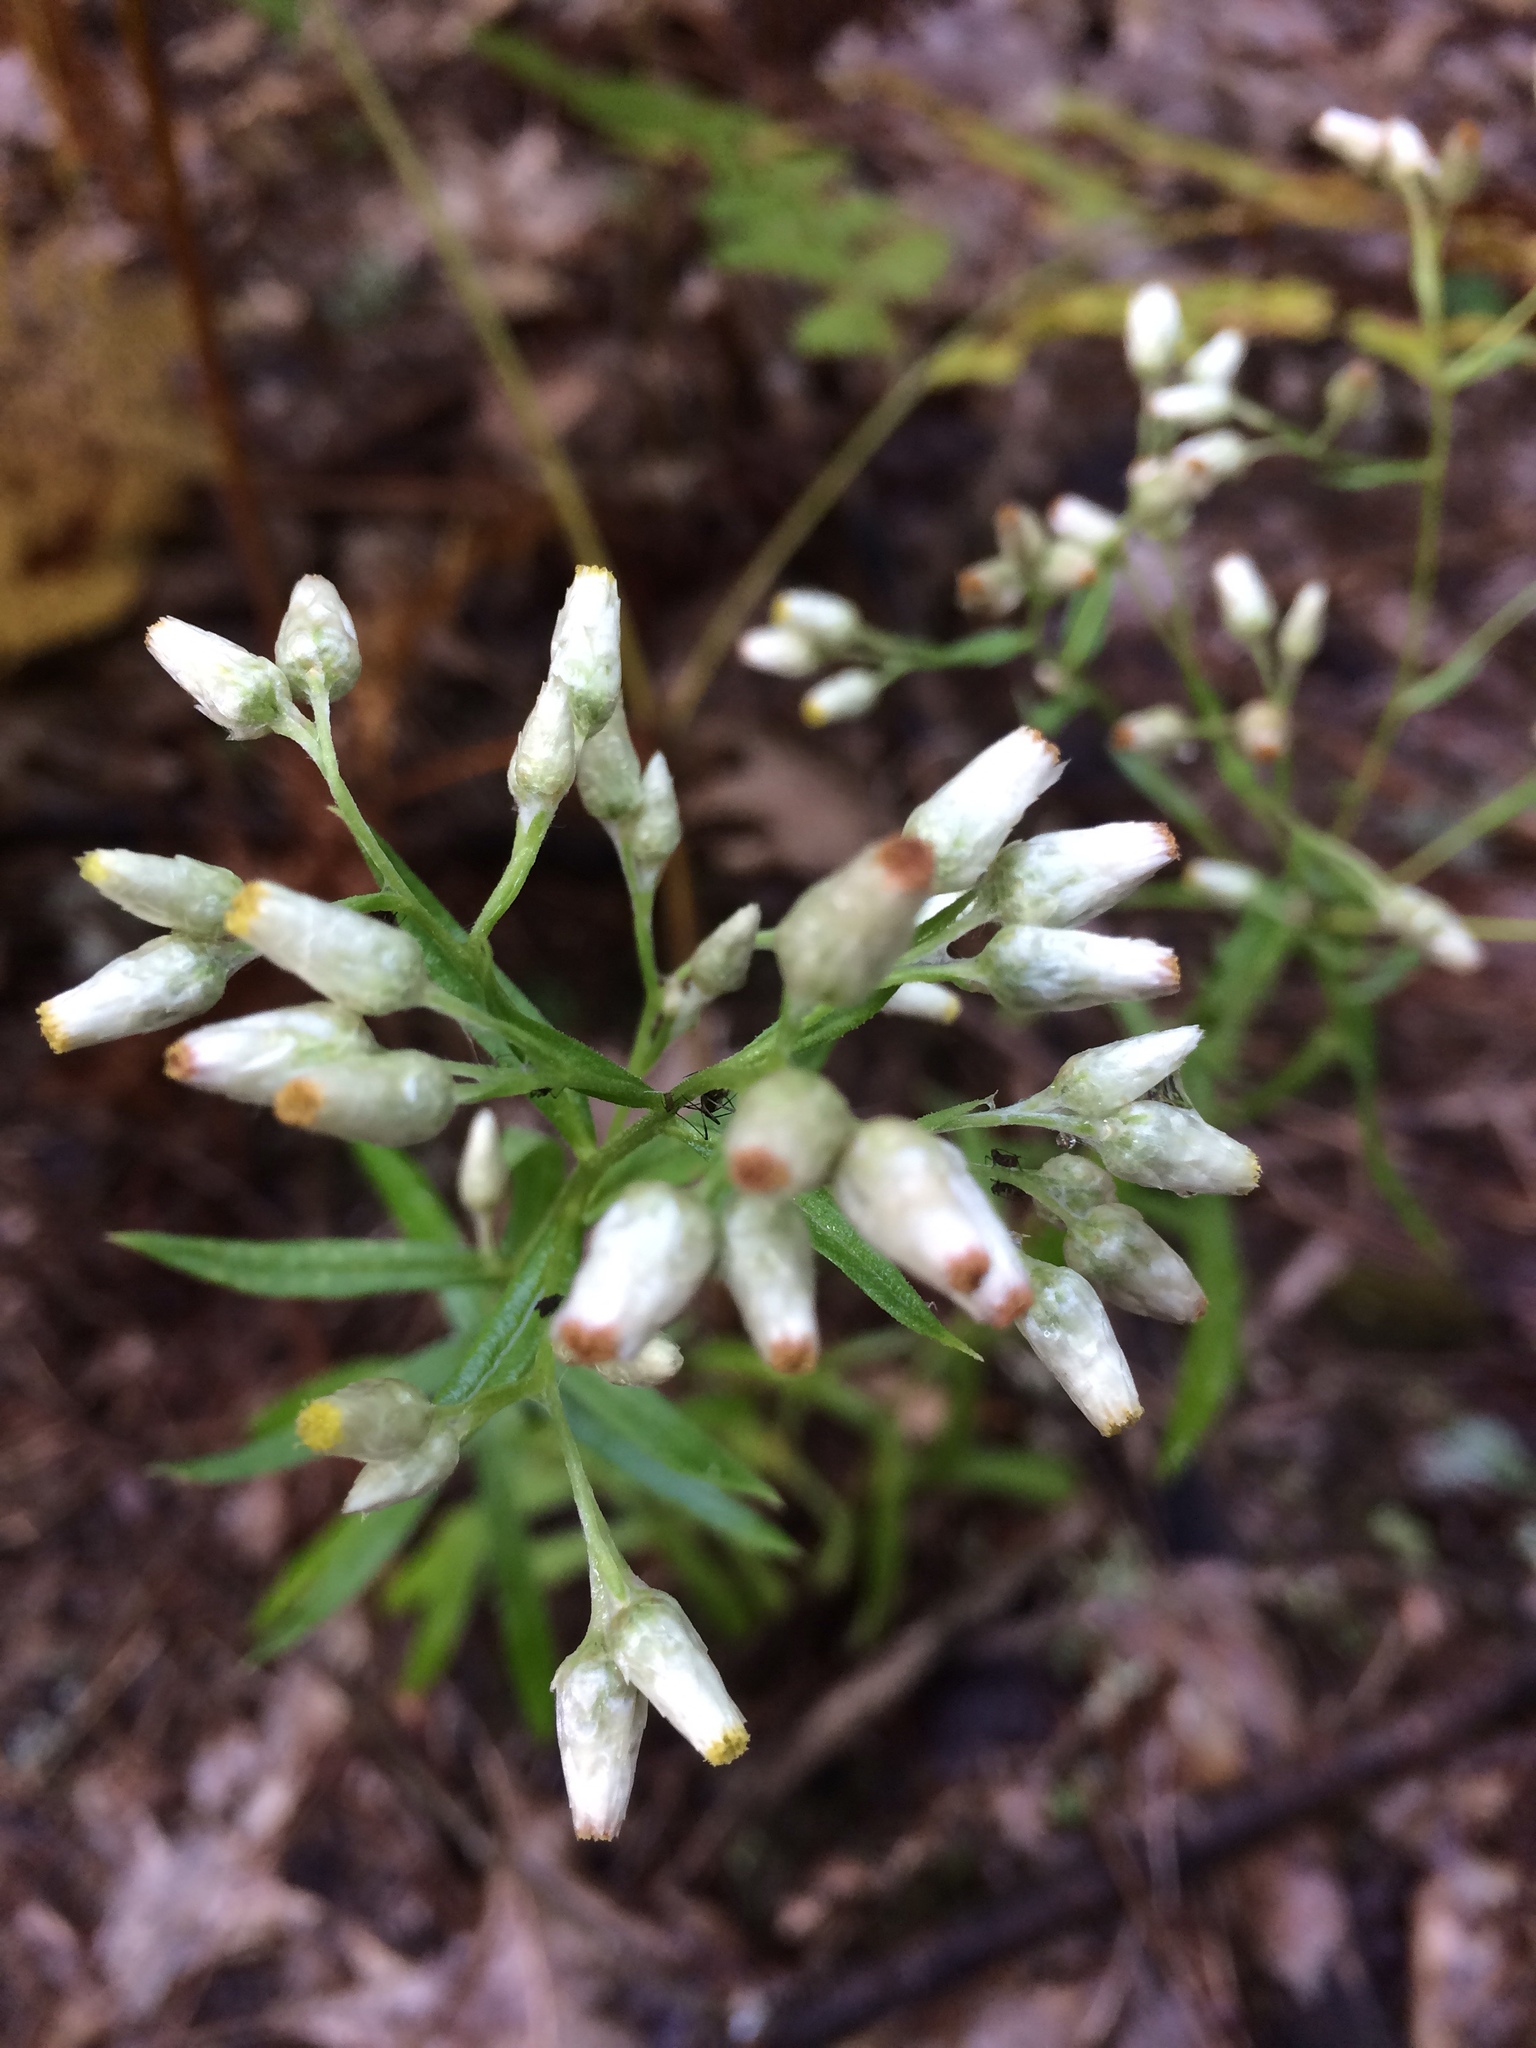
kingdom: Plantae
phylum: Tracheophyta
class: Magnoliopsida
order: Asterales
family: Asteraceae
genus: Pseudognaphalium
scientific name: Pseudognaphalium obtusifolium
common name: Eastern rabbit-tobacco
